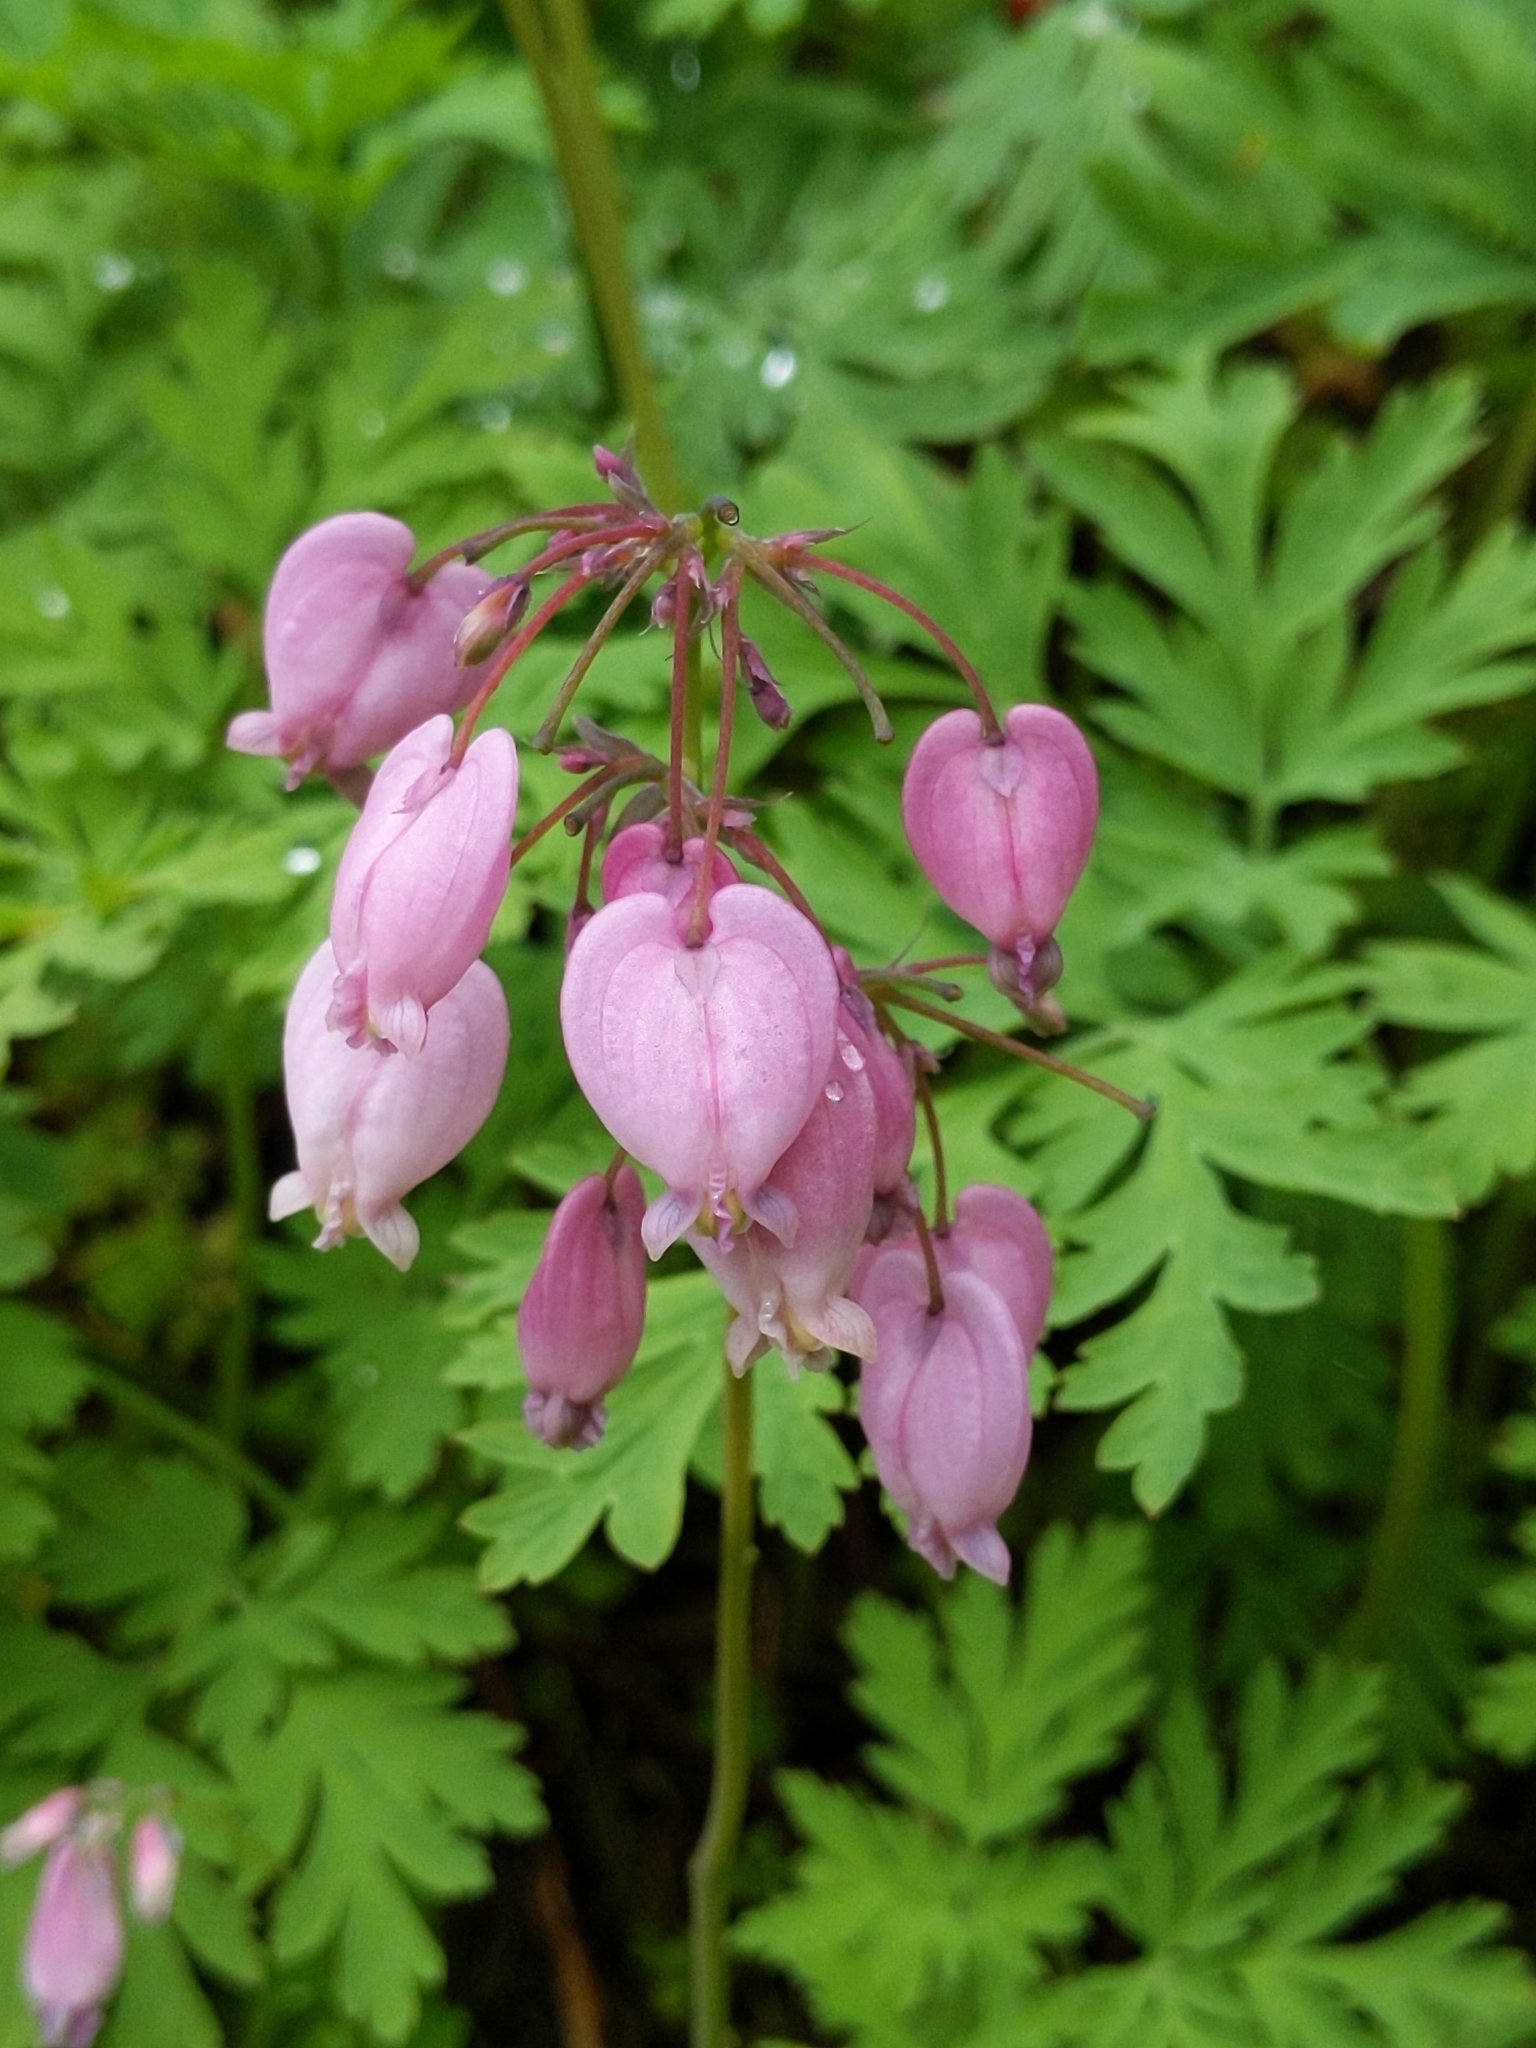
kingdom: Plantae
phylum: Tracheophyta
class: Magnoliopsida
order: Ranunculales
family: Papaveraceae
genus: Dicentra
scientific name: Dicentra formosa
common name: Bleeding-heart
